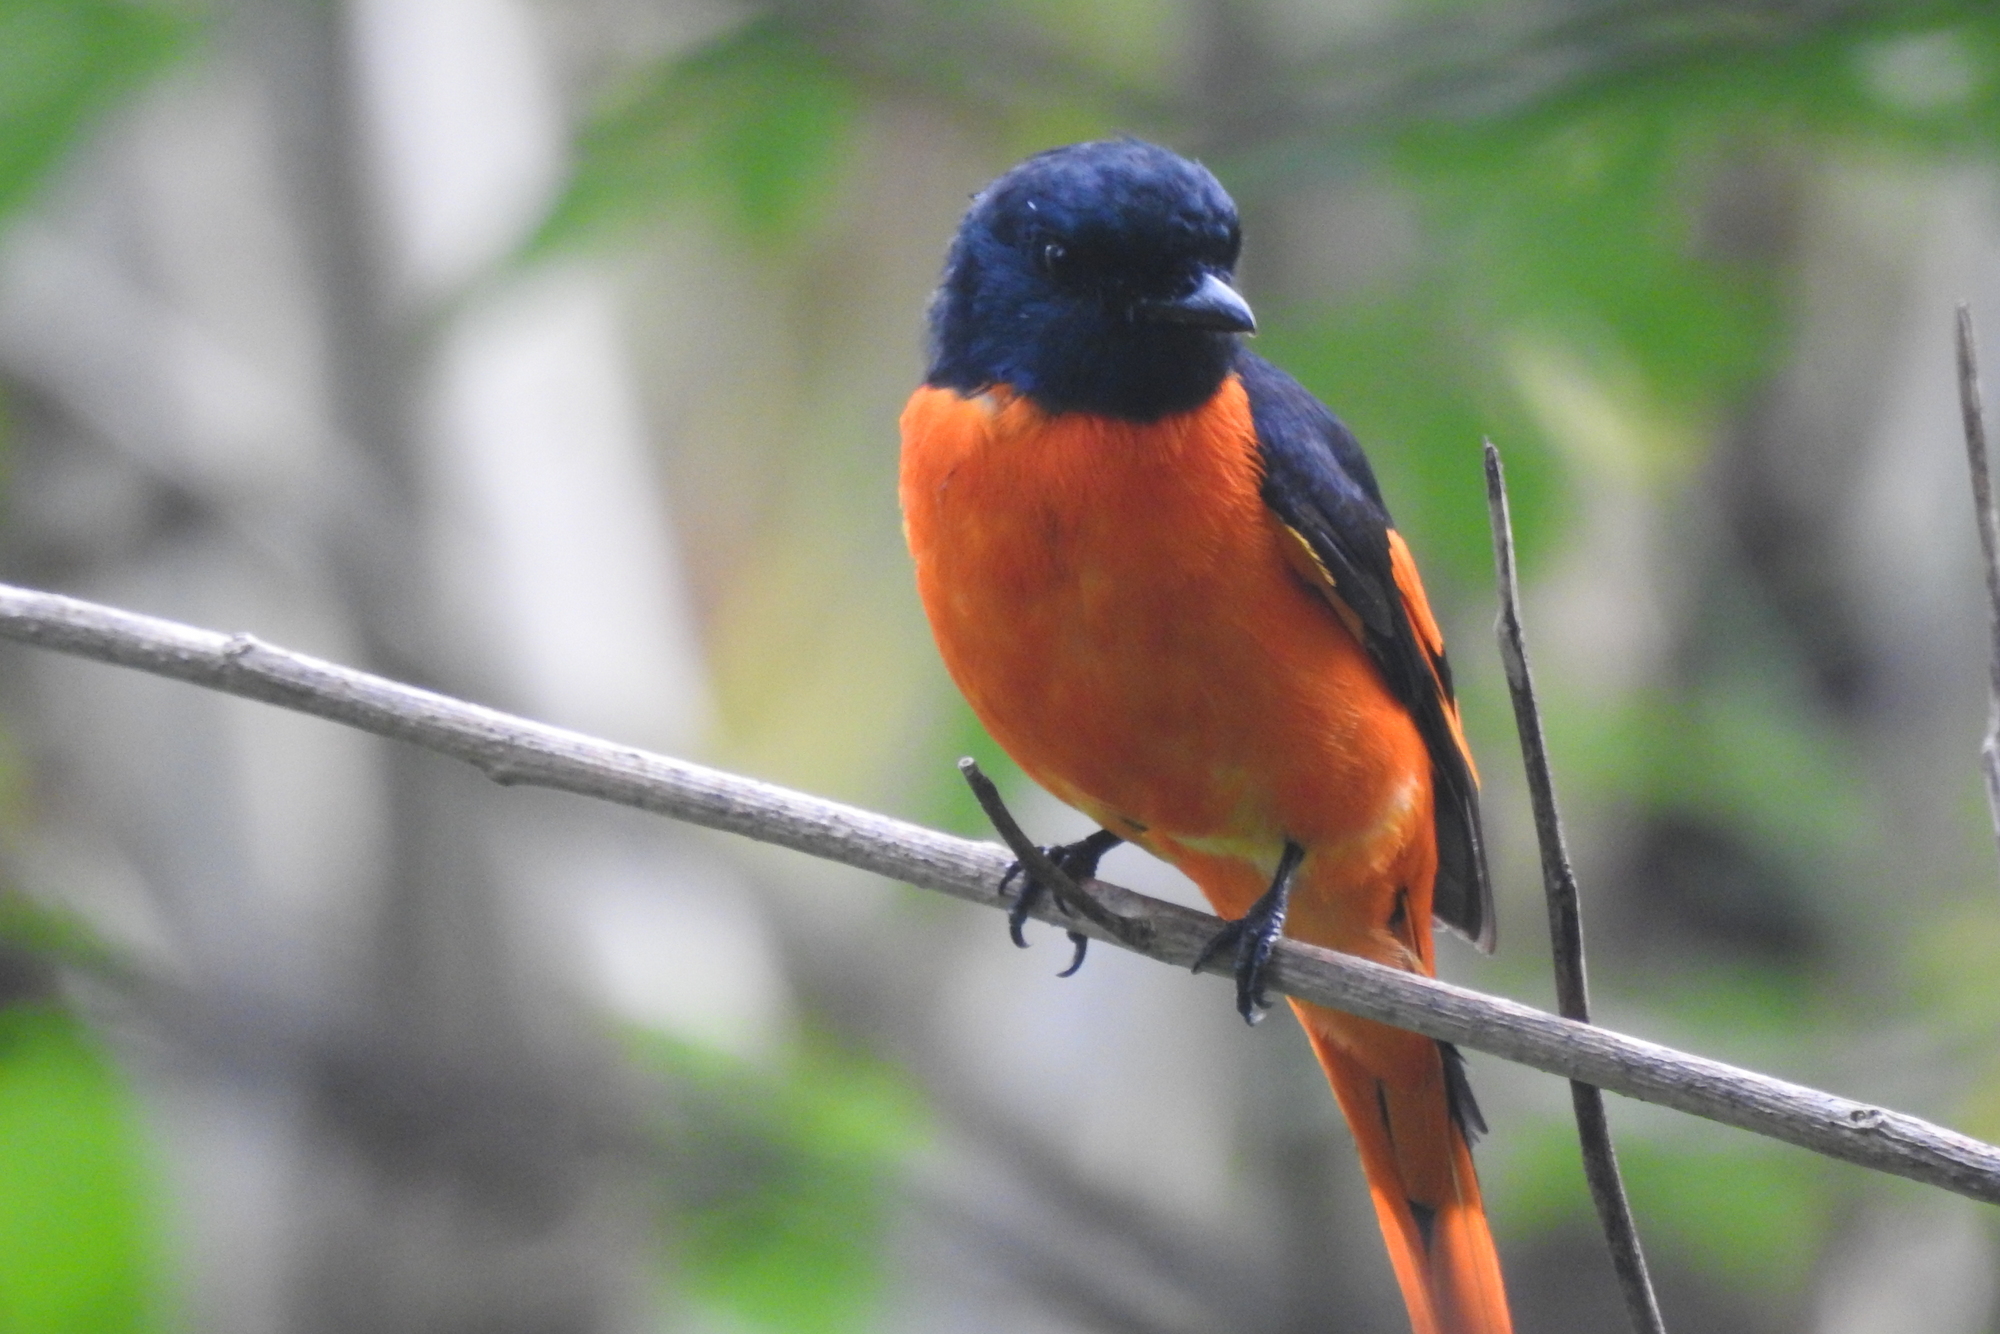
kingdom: Animalia
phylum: Chordata
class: Aves
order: Passeriformes
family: Campephagidae
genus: Pericrocotus
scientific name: Pericrocotus flammeus
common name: Orange minivet
